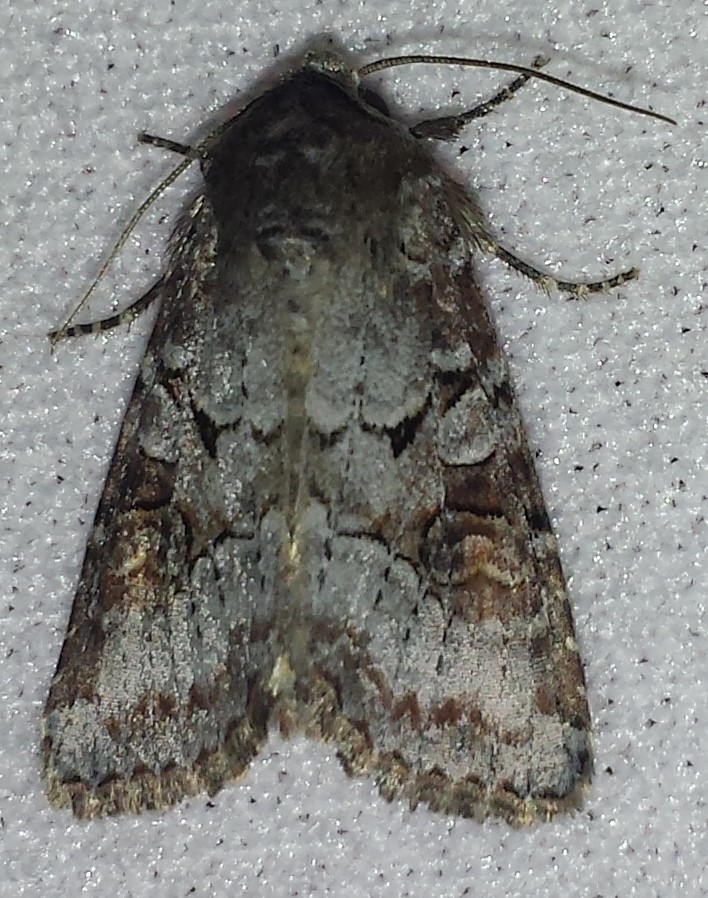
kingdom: Animalia
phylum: Arthropoda
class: Insecta
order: Lepidoptera
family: Noctuidae
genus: Trichordestra
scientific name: Trichordestra legitima
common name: Striped garden caterpillar
